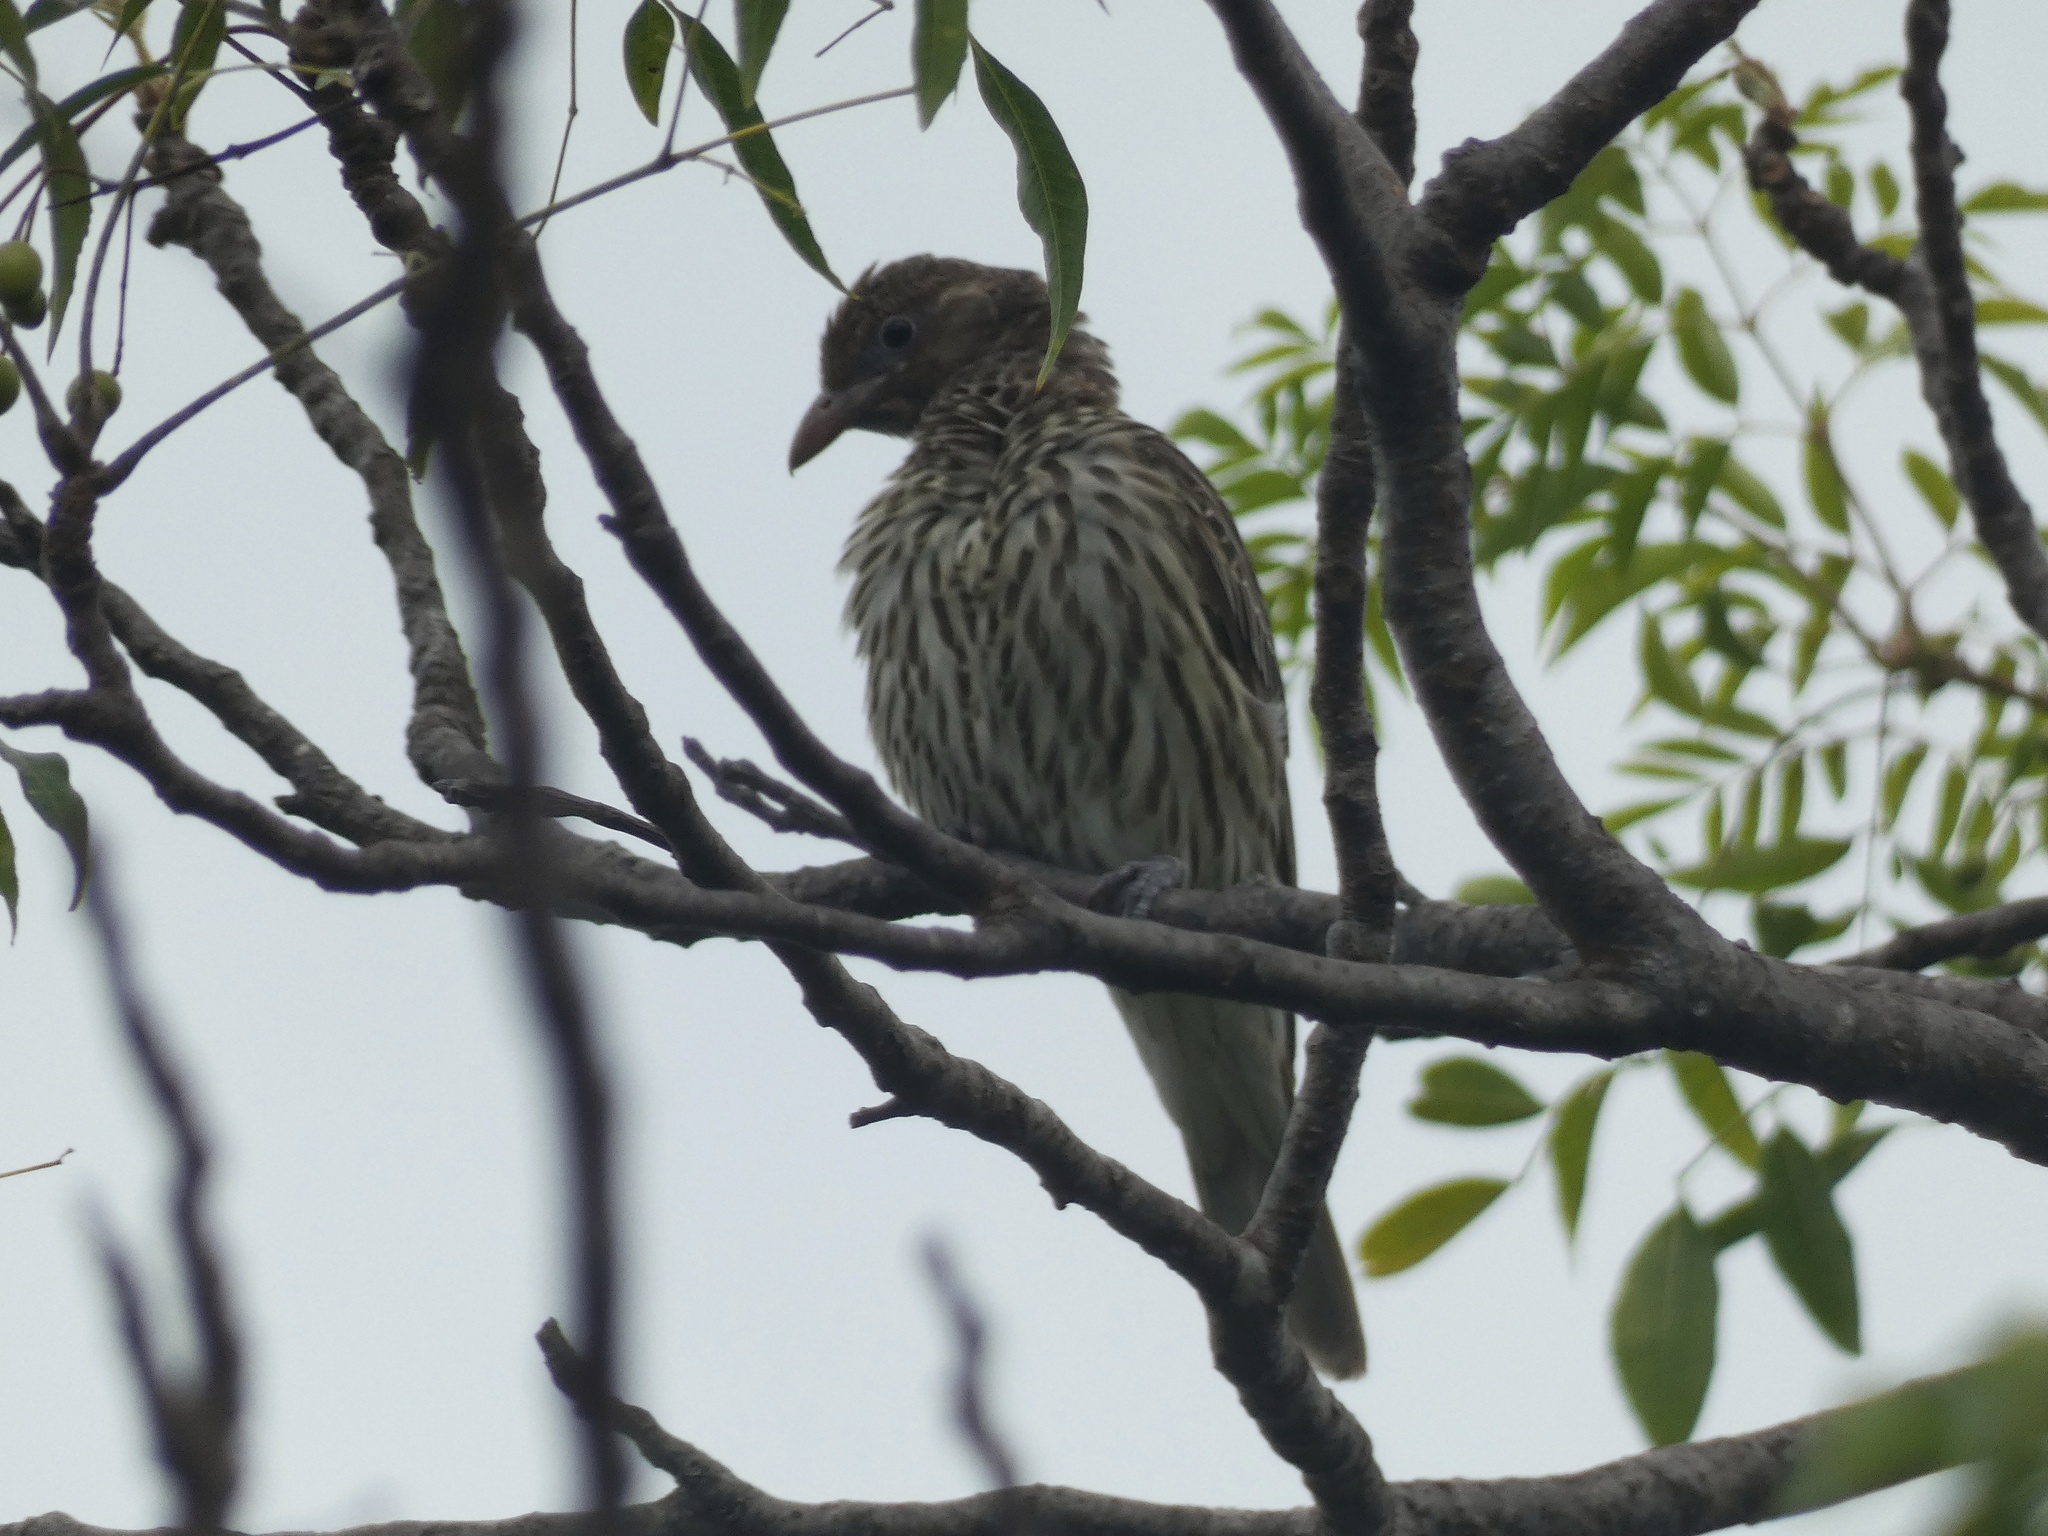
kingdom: Animalia
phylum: Chordata
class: Aves
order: Passeriformes
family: Oriolidae
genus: Sphecotheres
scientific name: Sphecotheres vieilloti
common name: Australasian figbird
